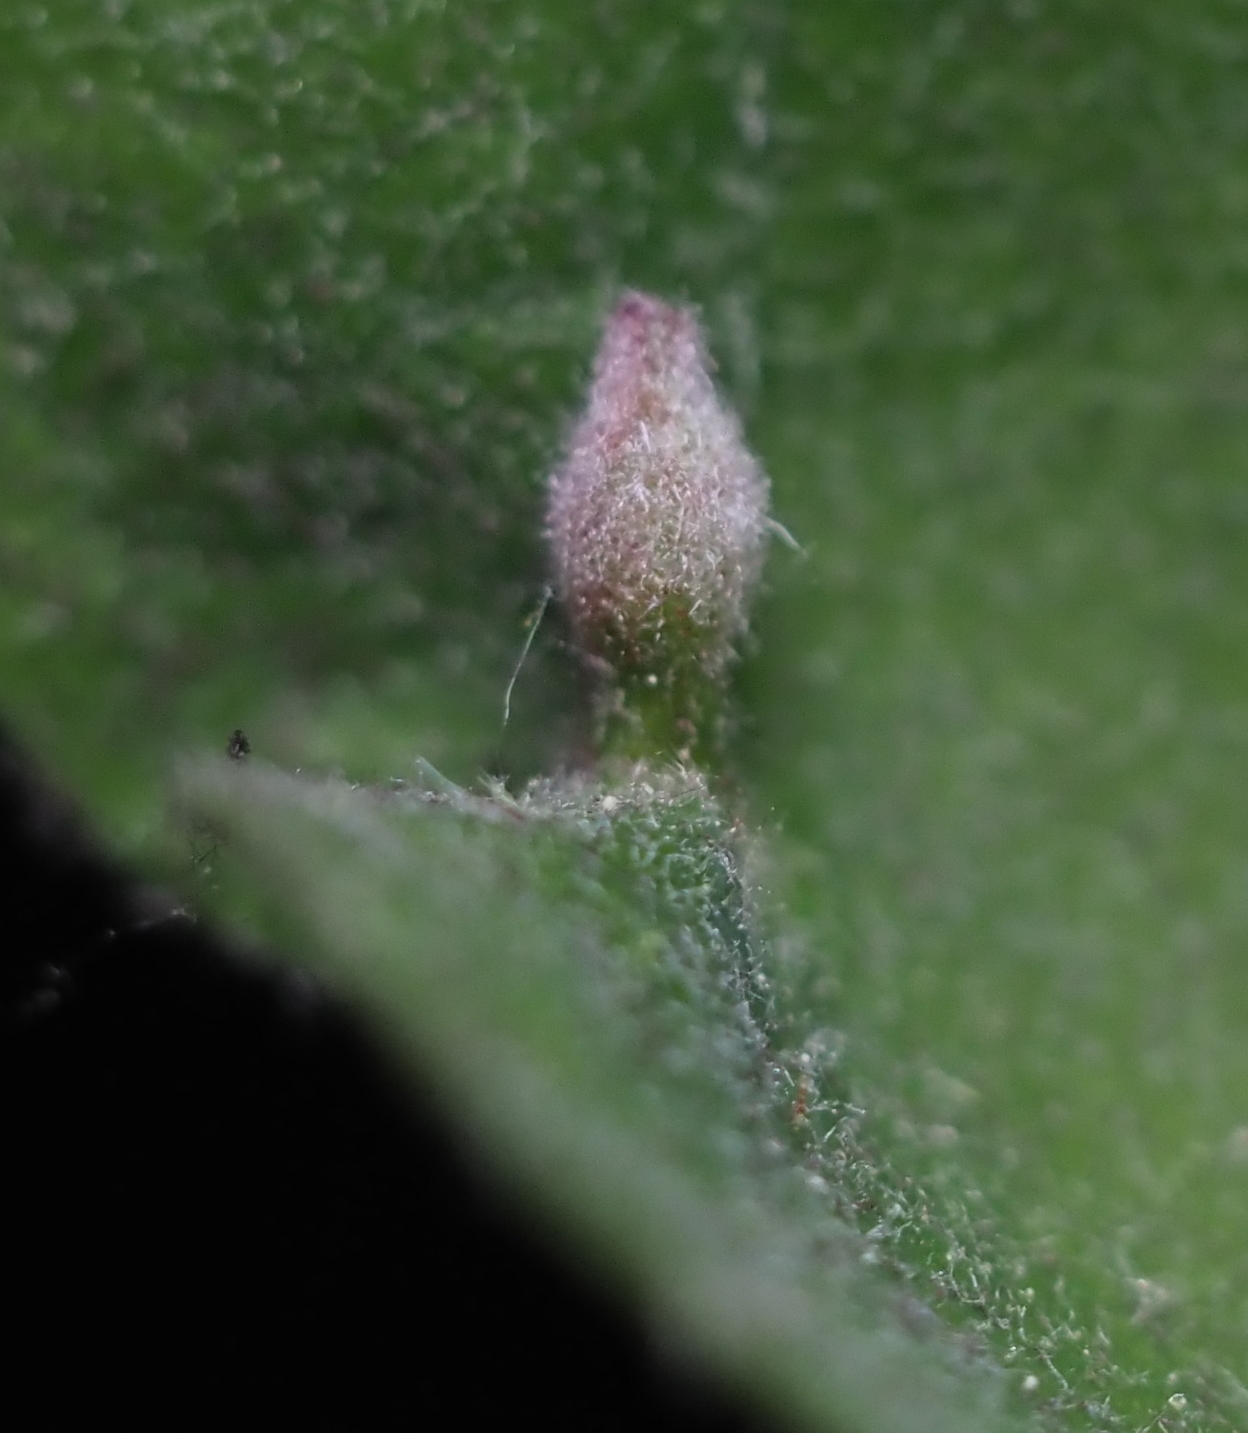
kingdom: Animalia
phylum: Arthropoda
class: Insecta
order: Hymenoptera
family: Cynipidae
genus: Andricus
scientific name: Andricus
